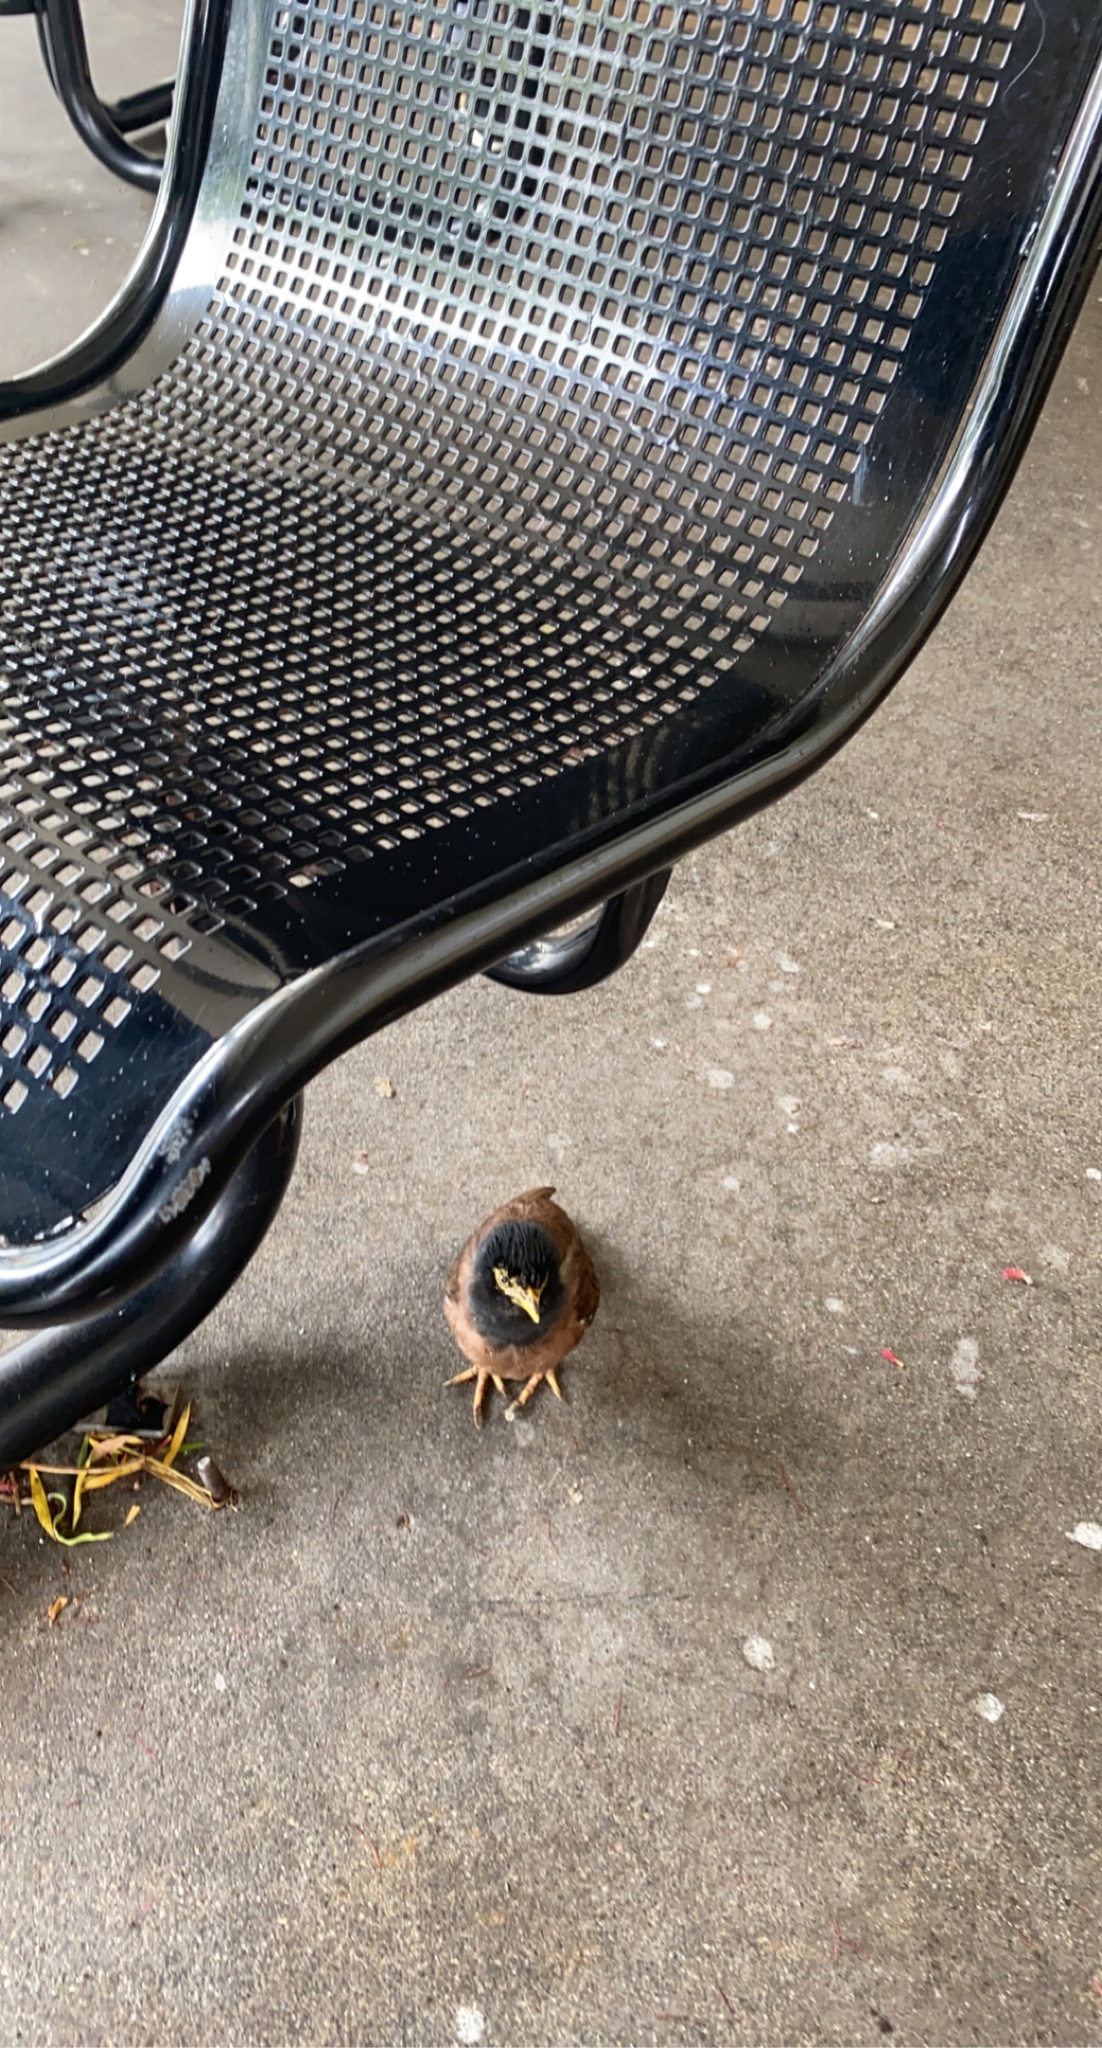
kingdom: Animalia
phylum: Chordata
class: Aves
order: Passeriformes
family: Sturnidae
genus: Acridotheres
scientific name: Acridotheres tristis
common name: Common myna
